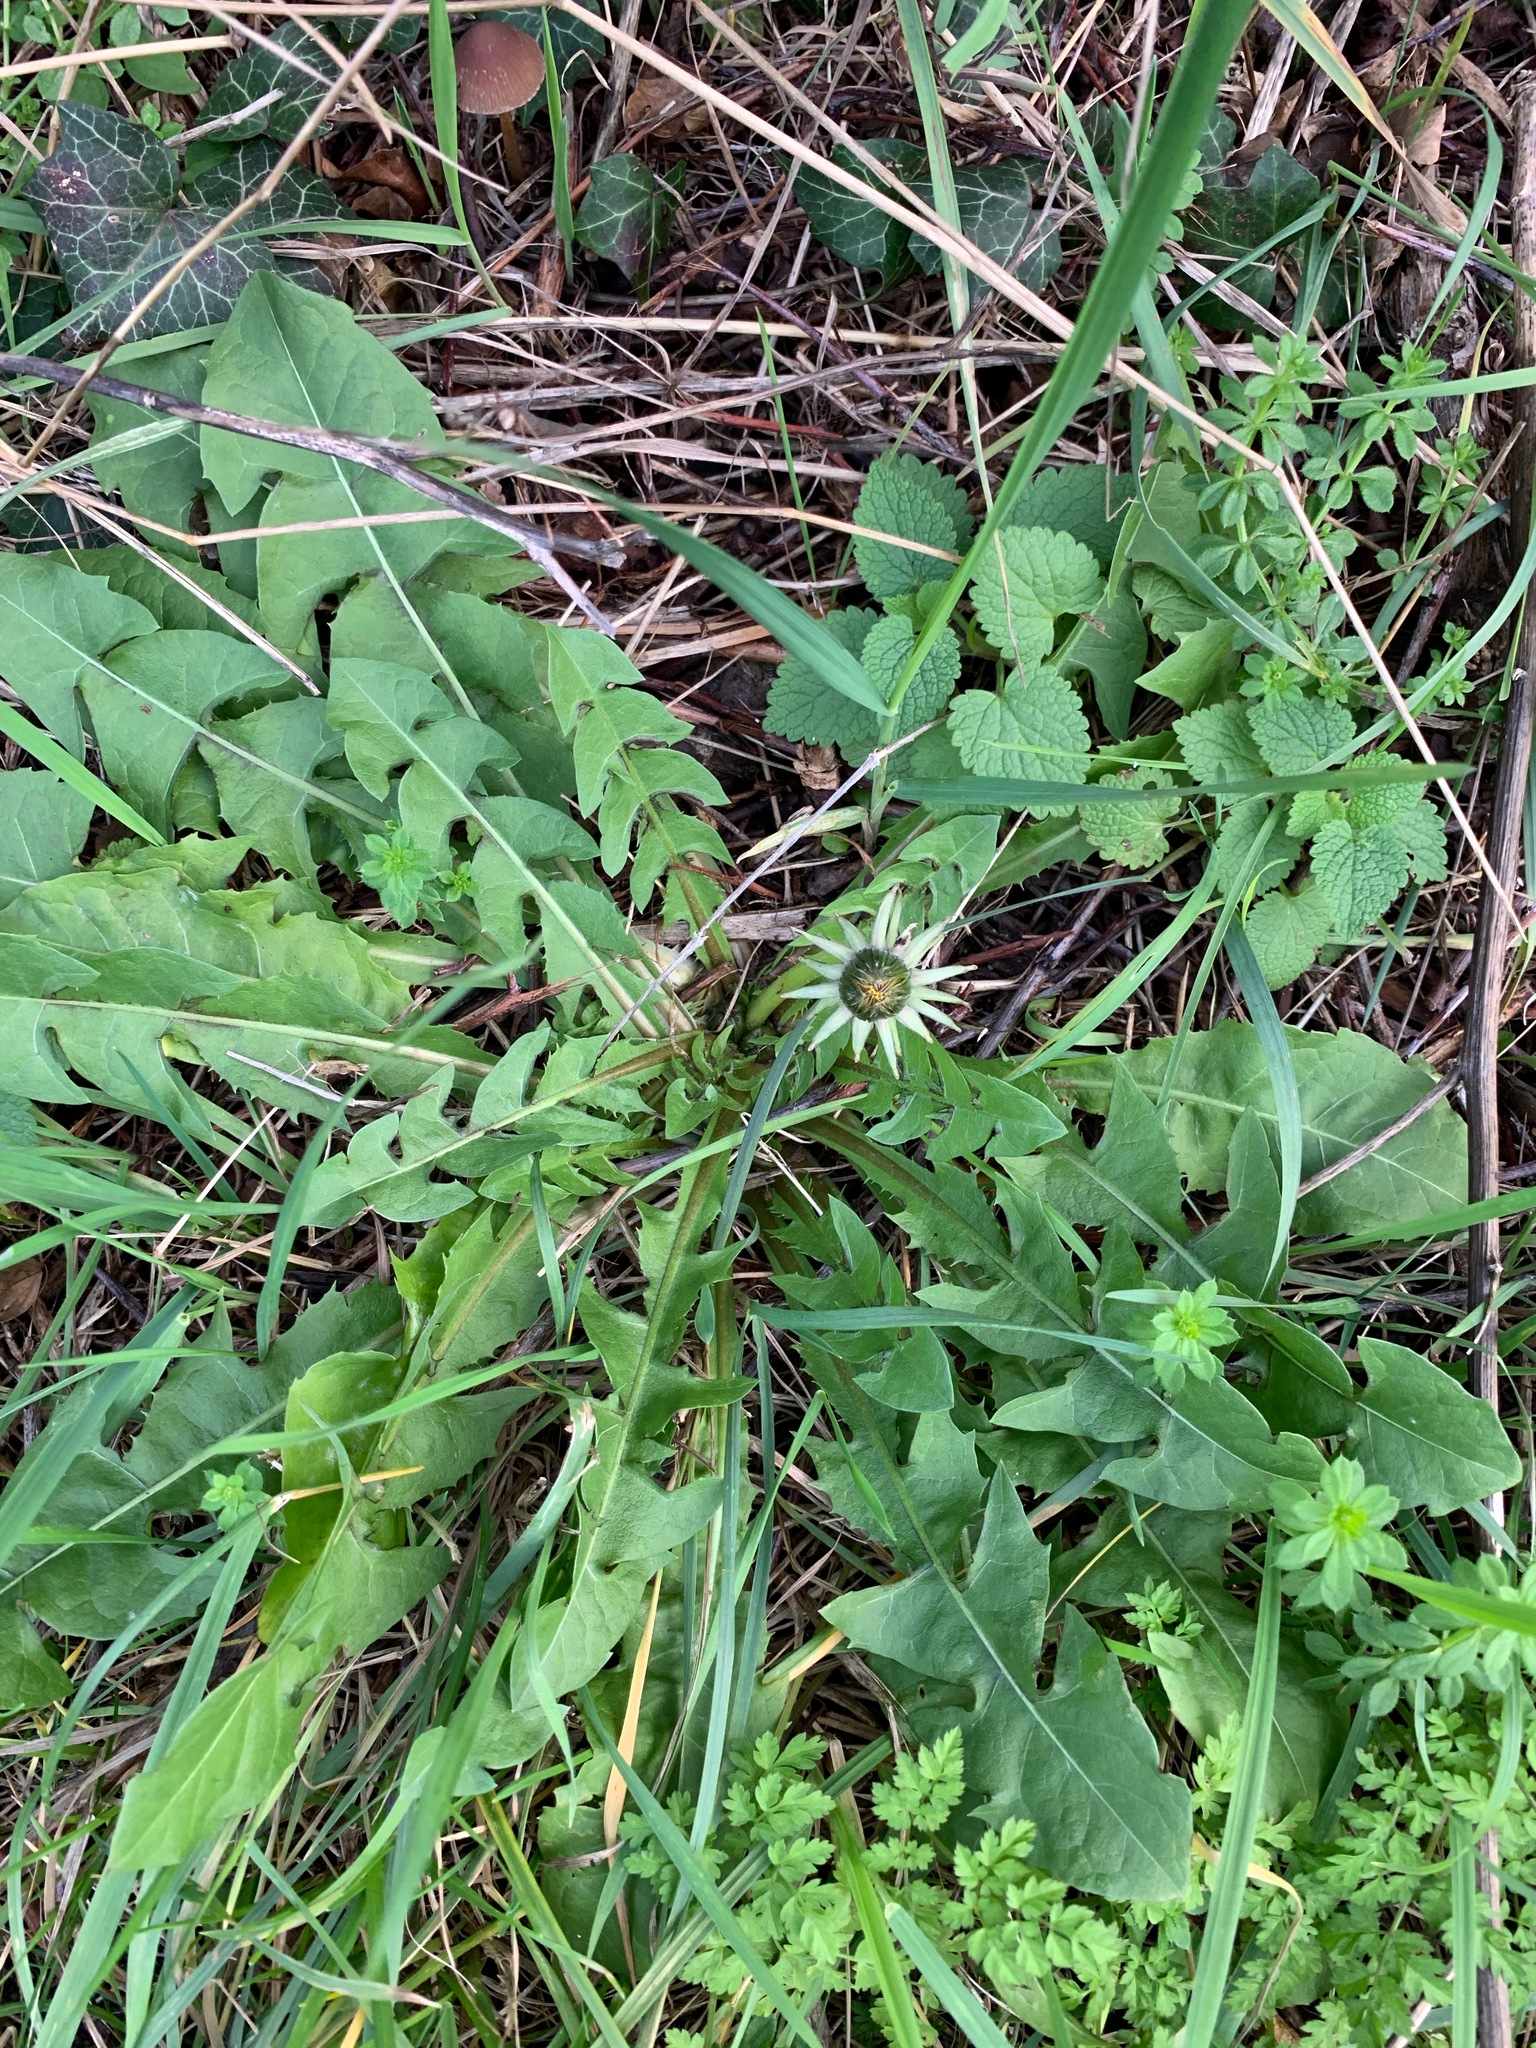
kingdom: Plantae
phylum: Tracheophyta
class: Magnoliopsida
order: Asterales
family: Asteraceae
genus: Taraxacum
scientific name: Taraxacum officinale
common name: Common dandelion
